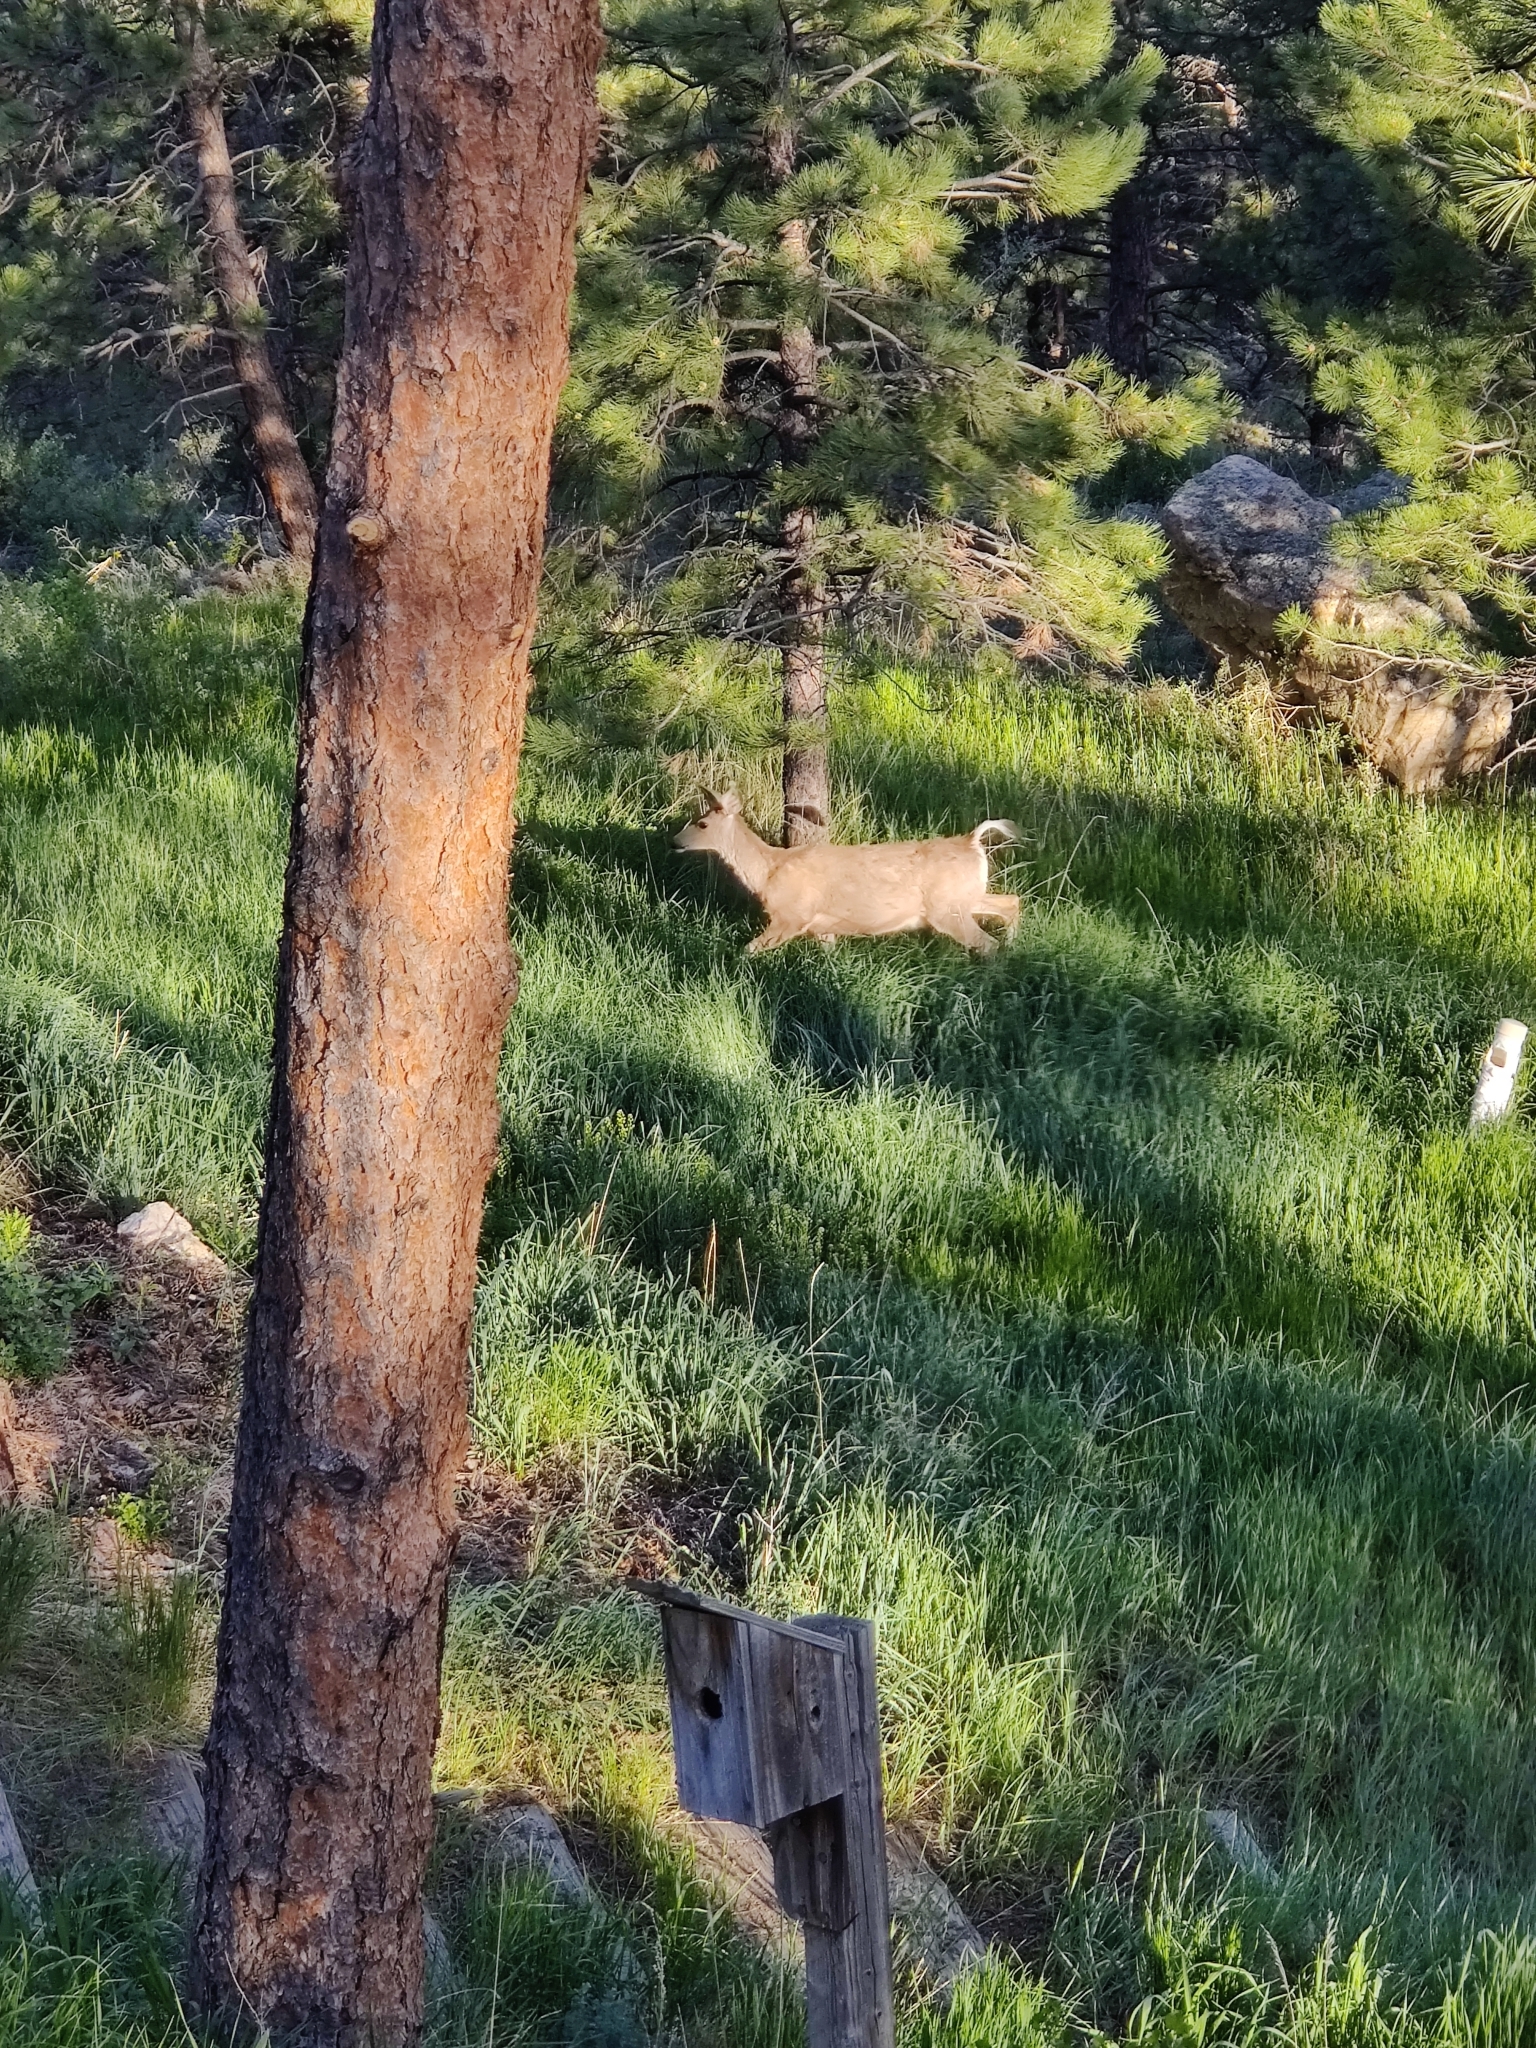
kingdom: Animalia
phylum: Chordata
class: Mammalia
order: Artiodactyla
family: Cervidae
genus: Odocoileus
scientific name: Odocoileus hemionus
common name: Mule deer
